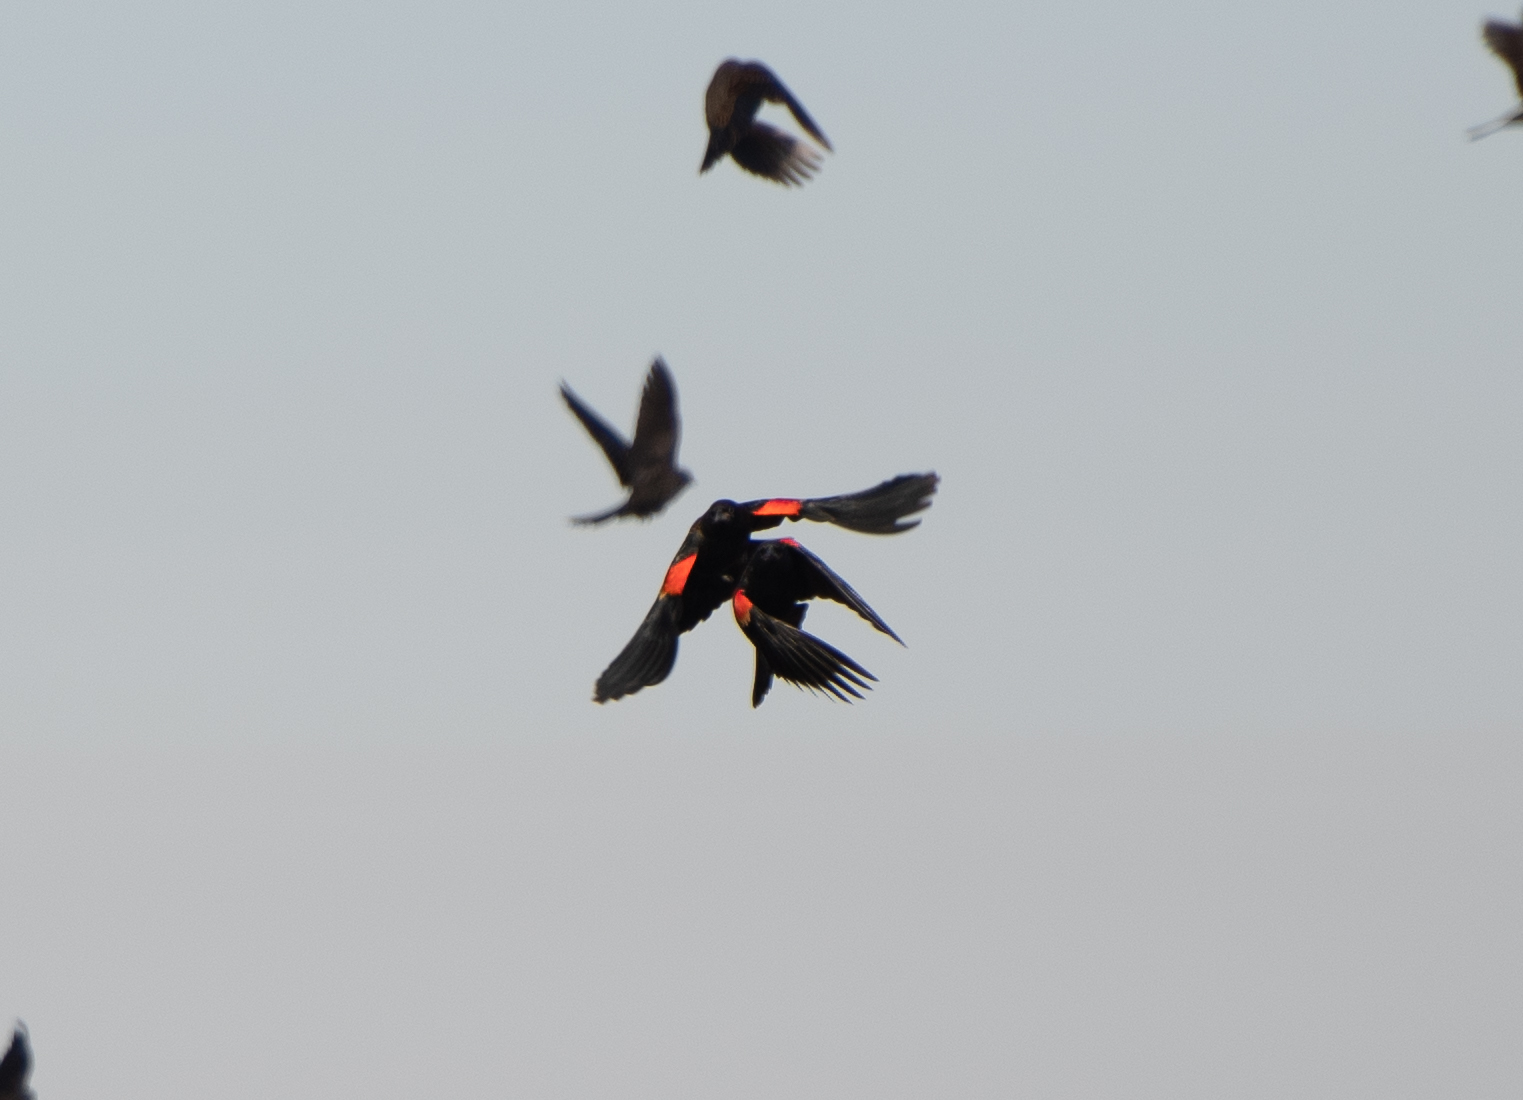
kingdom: Animalia
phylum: Chordata
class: Aves
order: Passeriformes
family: Icteridae
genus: Agelaius
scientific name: Agelaius phoeniceus
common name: Red-winged blackbird
